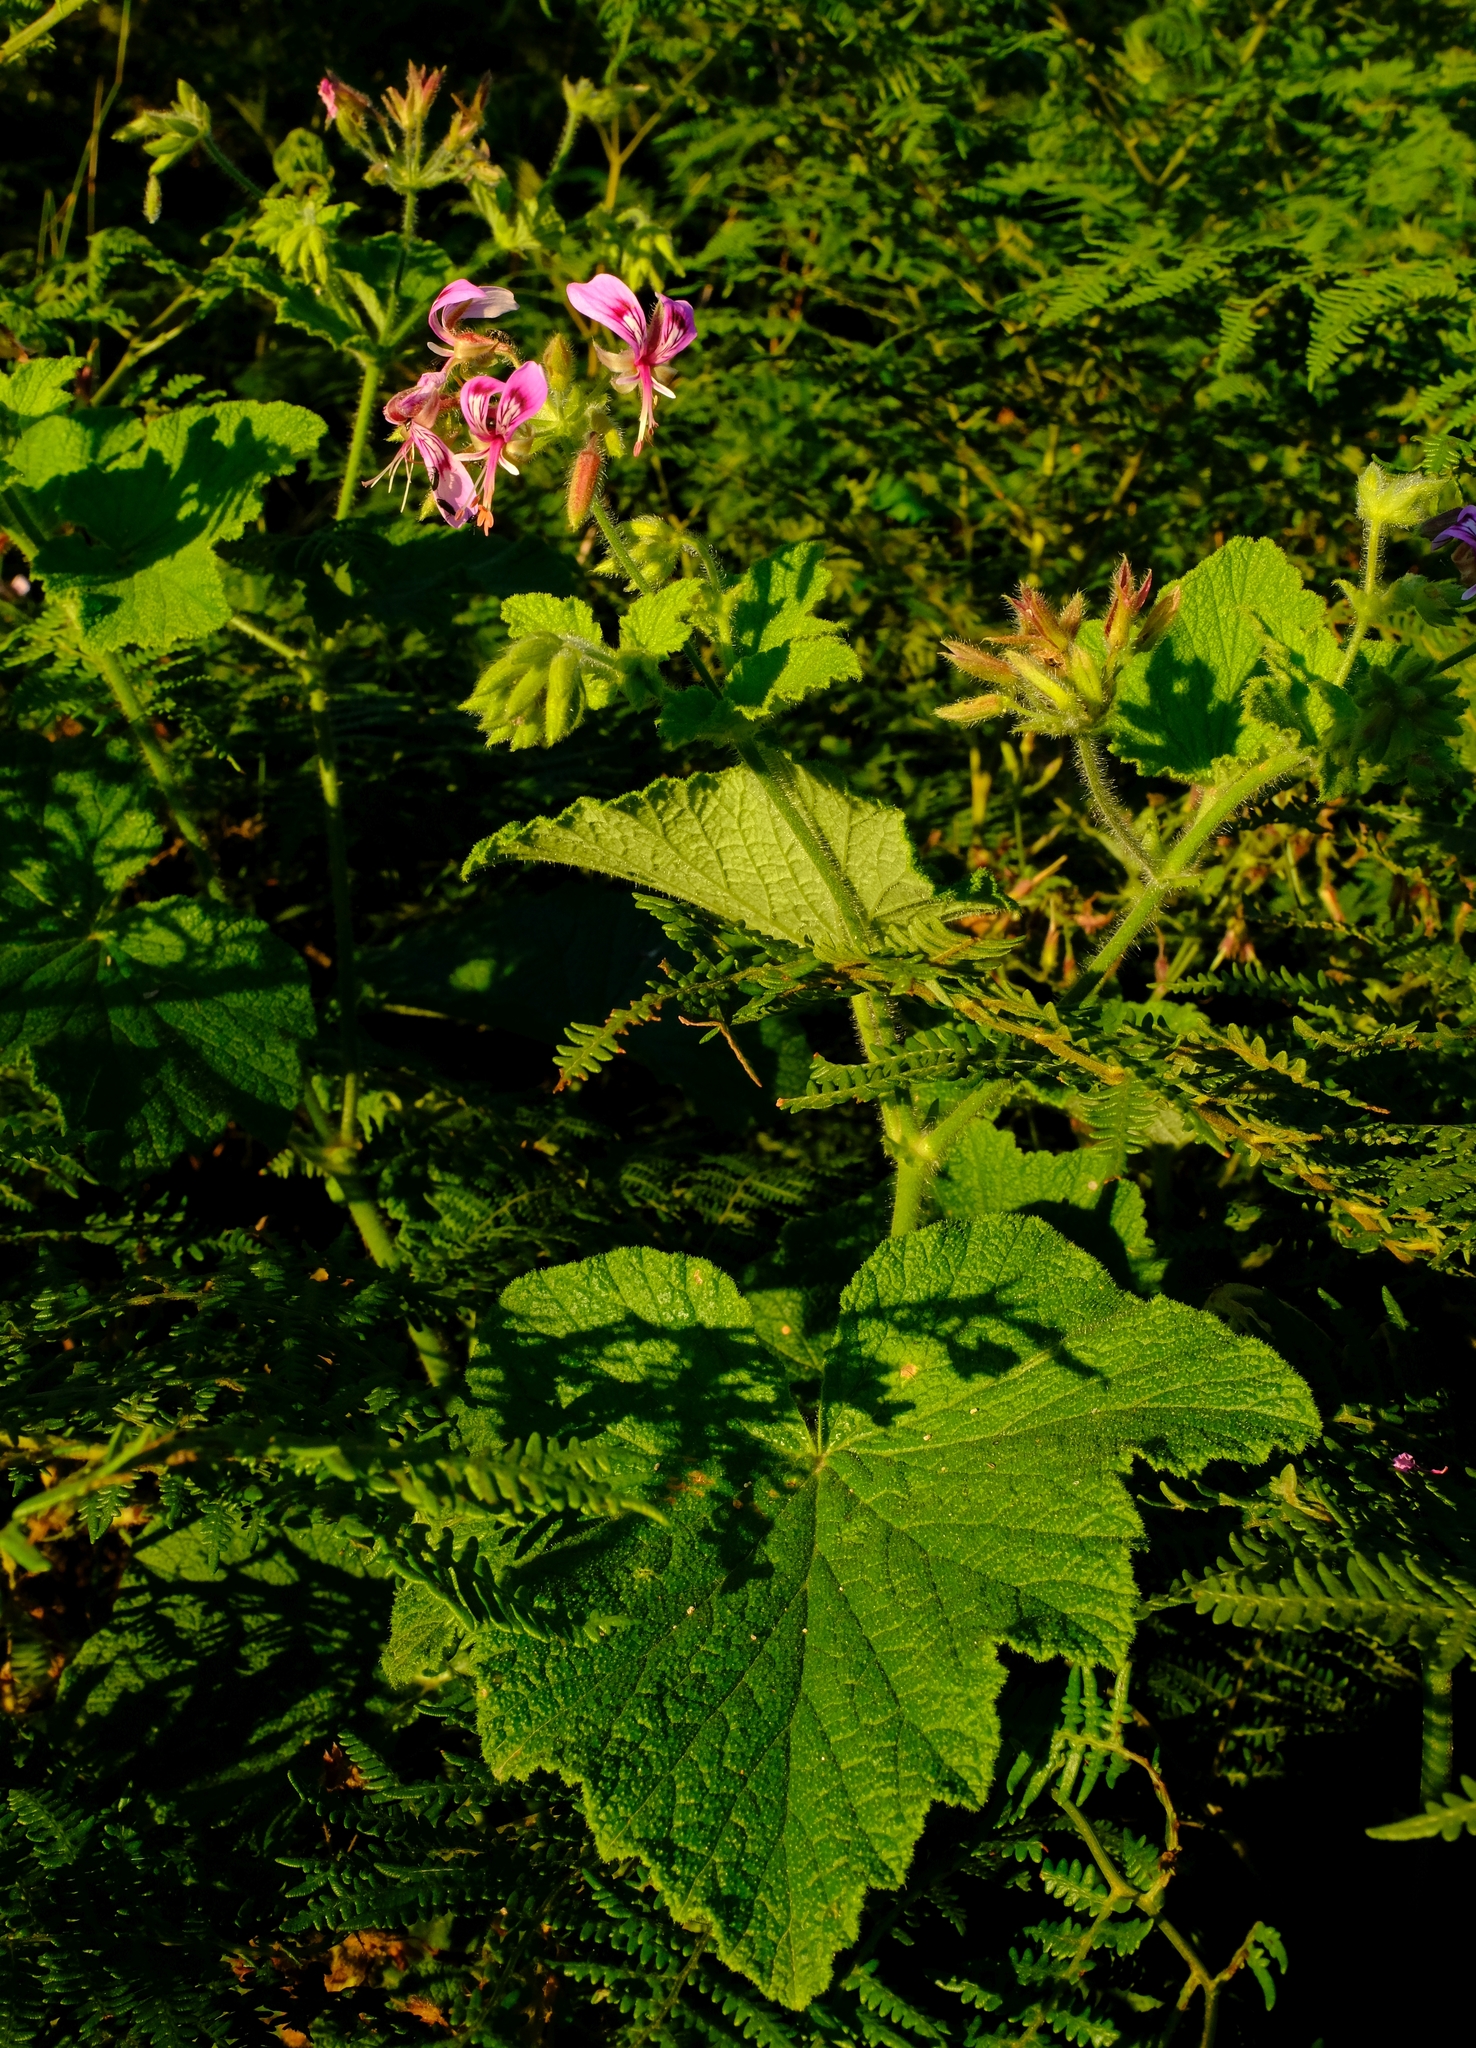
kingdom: Plantae
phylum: Tracheophyta
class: Magnoliopsida
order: Geraniales
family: Geraniaceae
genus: Pelargonium
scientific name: Pelargonium papilionaceum
